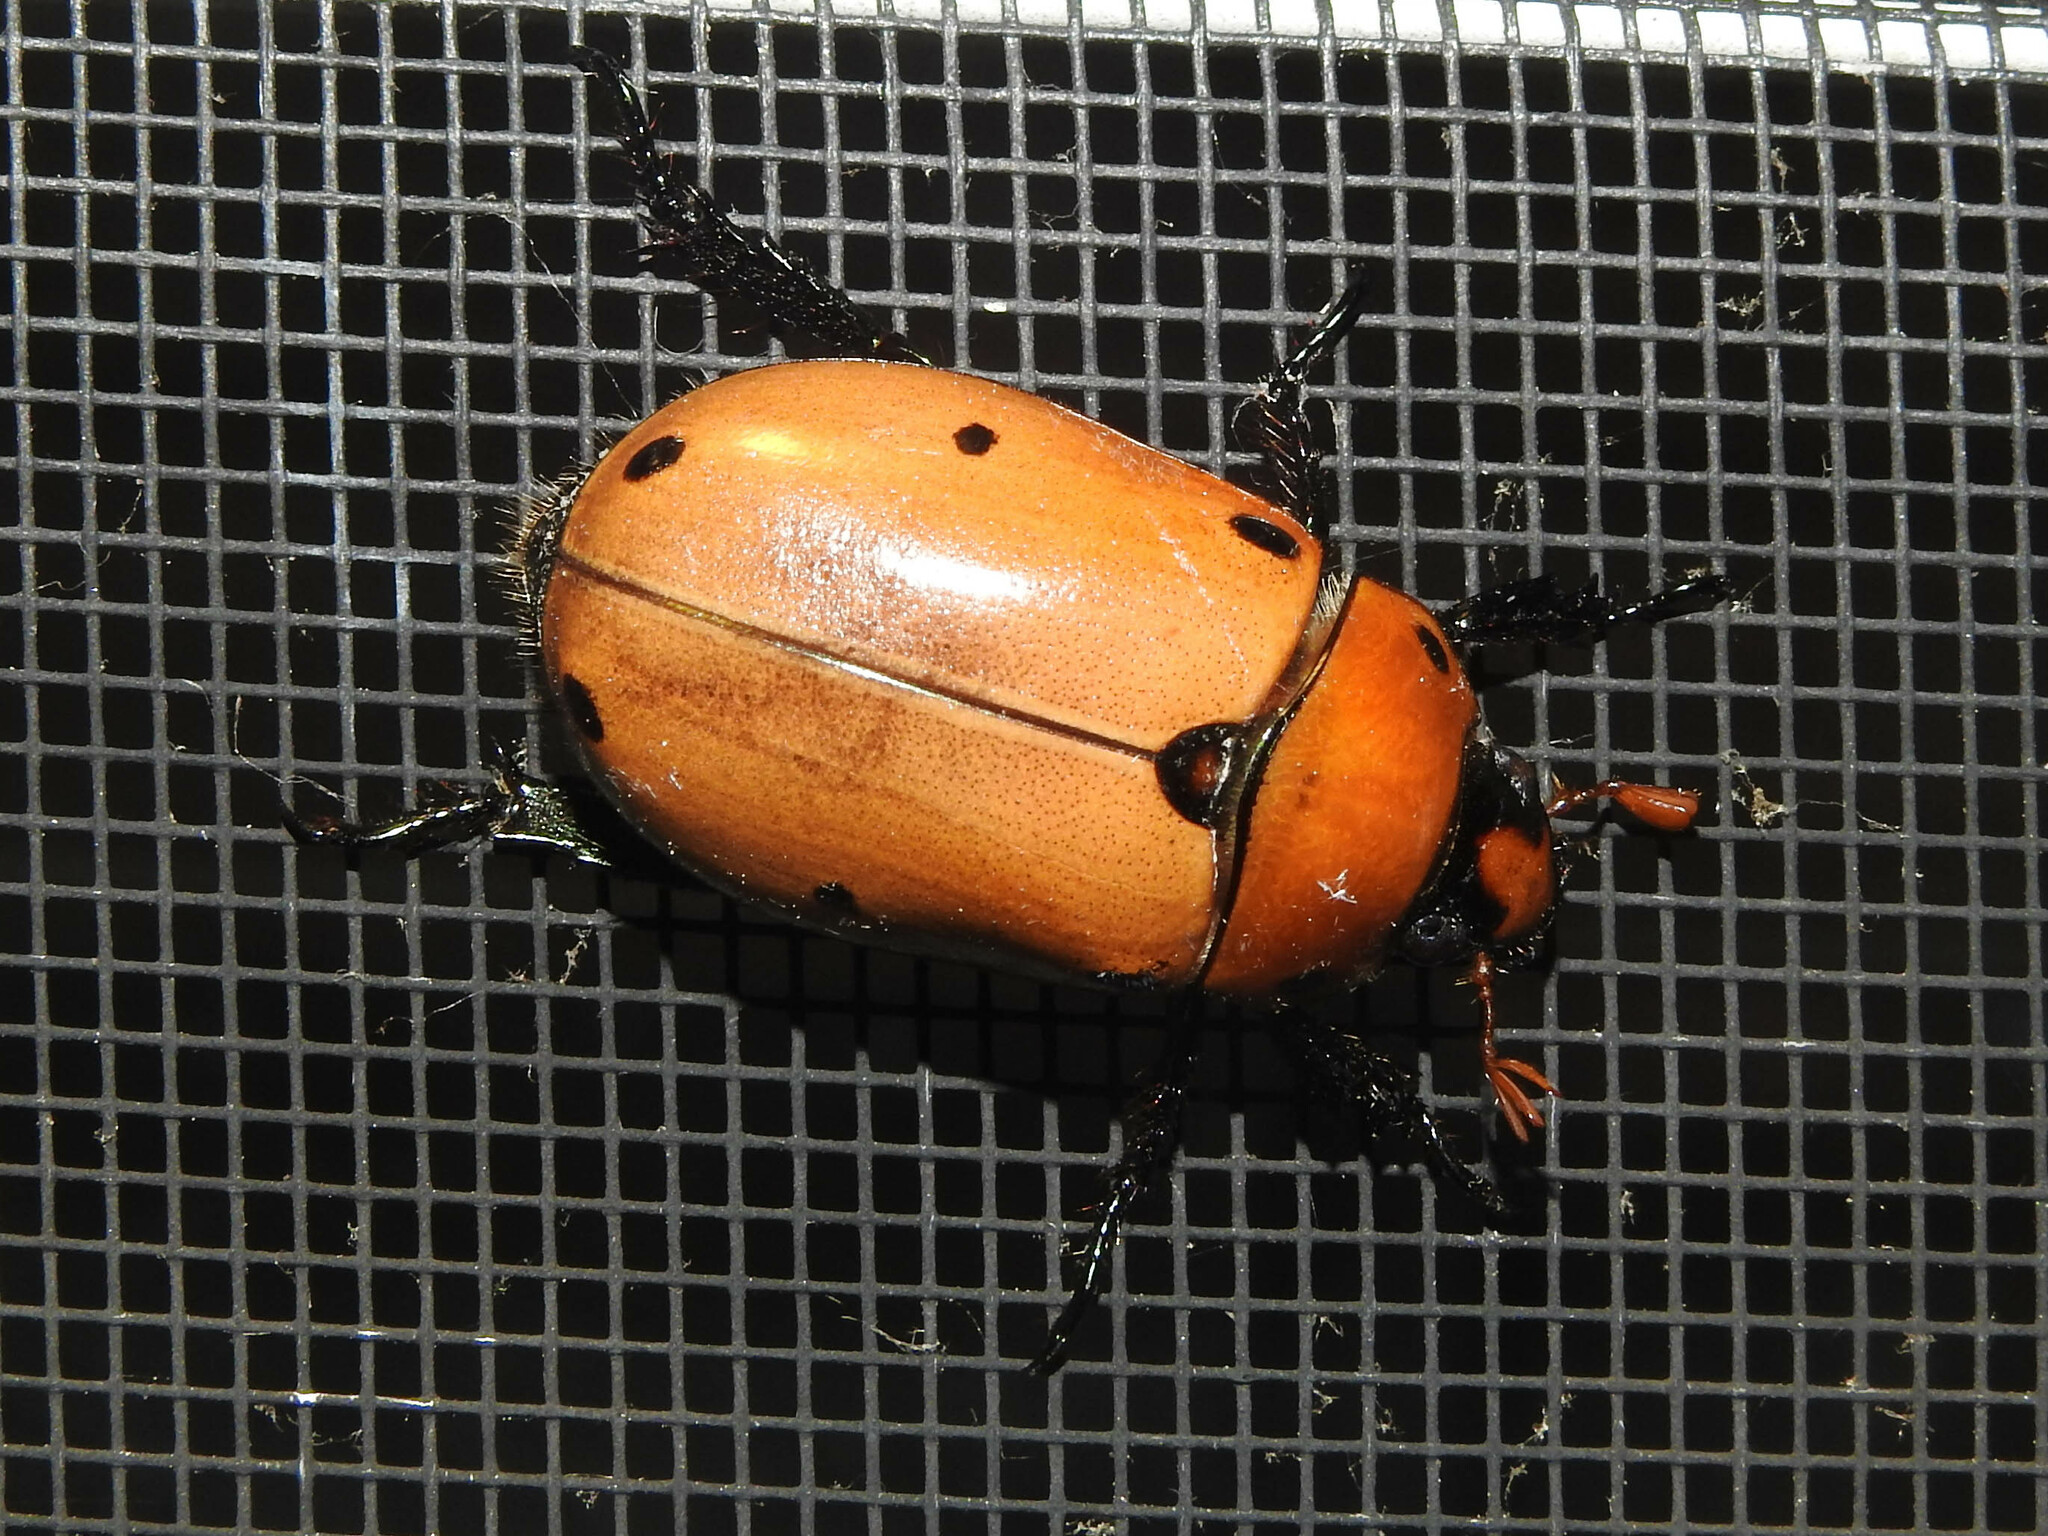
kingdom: Animalia
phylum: Arthropoda
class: Insecta
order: Coleoptera
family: Scarabaeidae
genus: Pelidnota
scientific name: Pelidnota punctata
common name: Grapevine beetle
